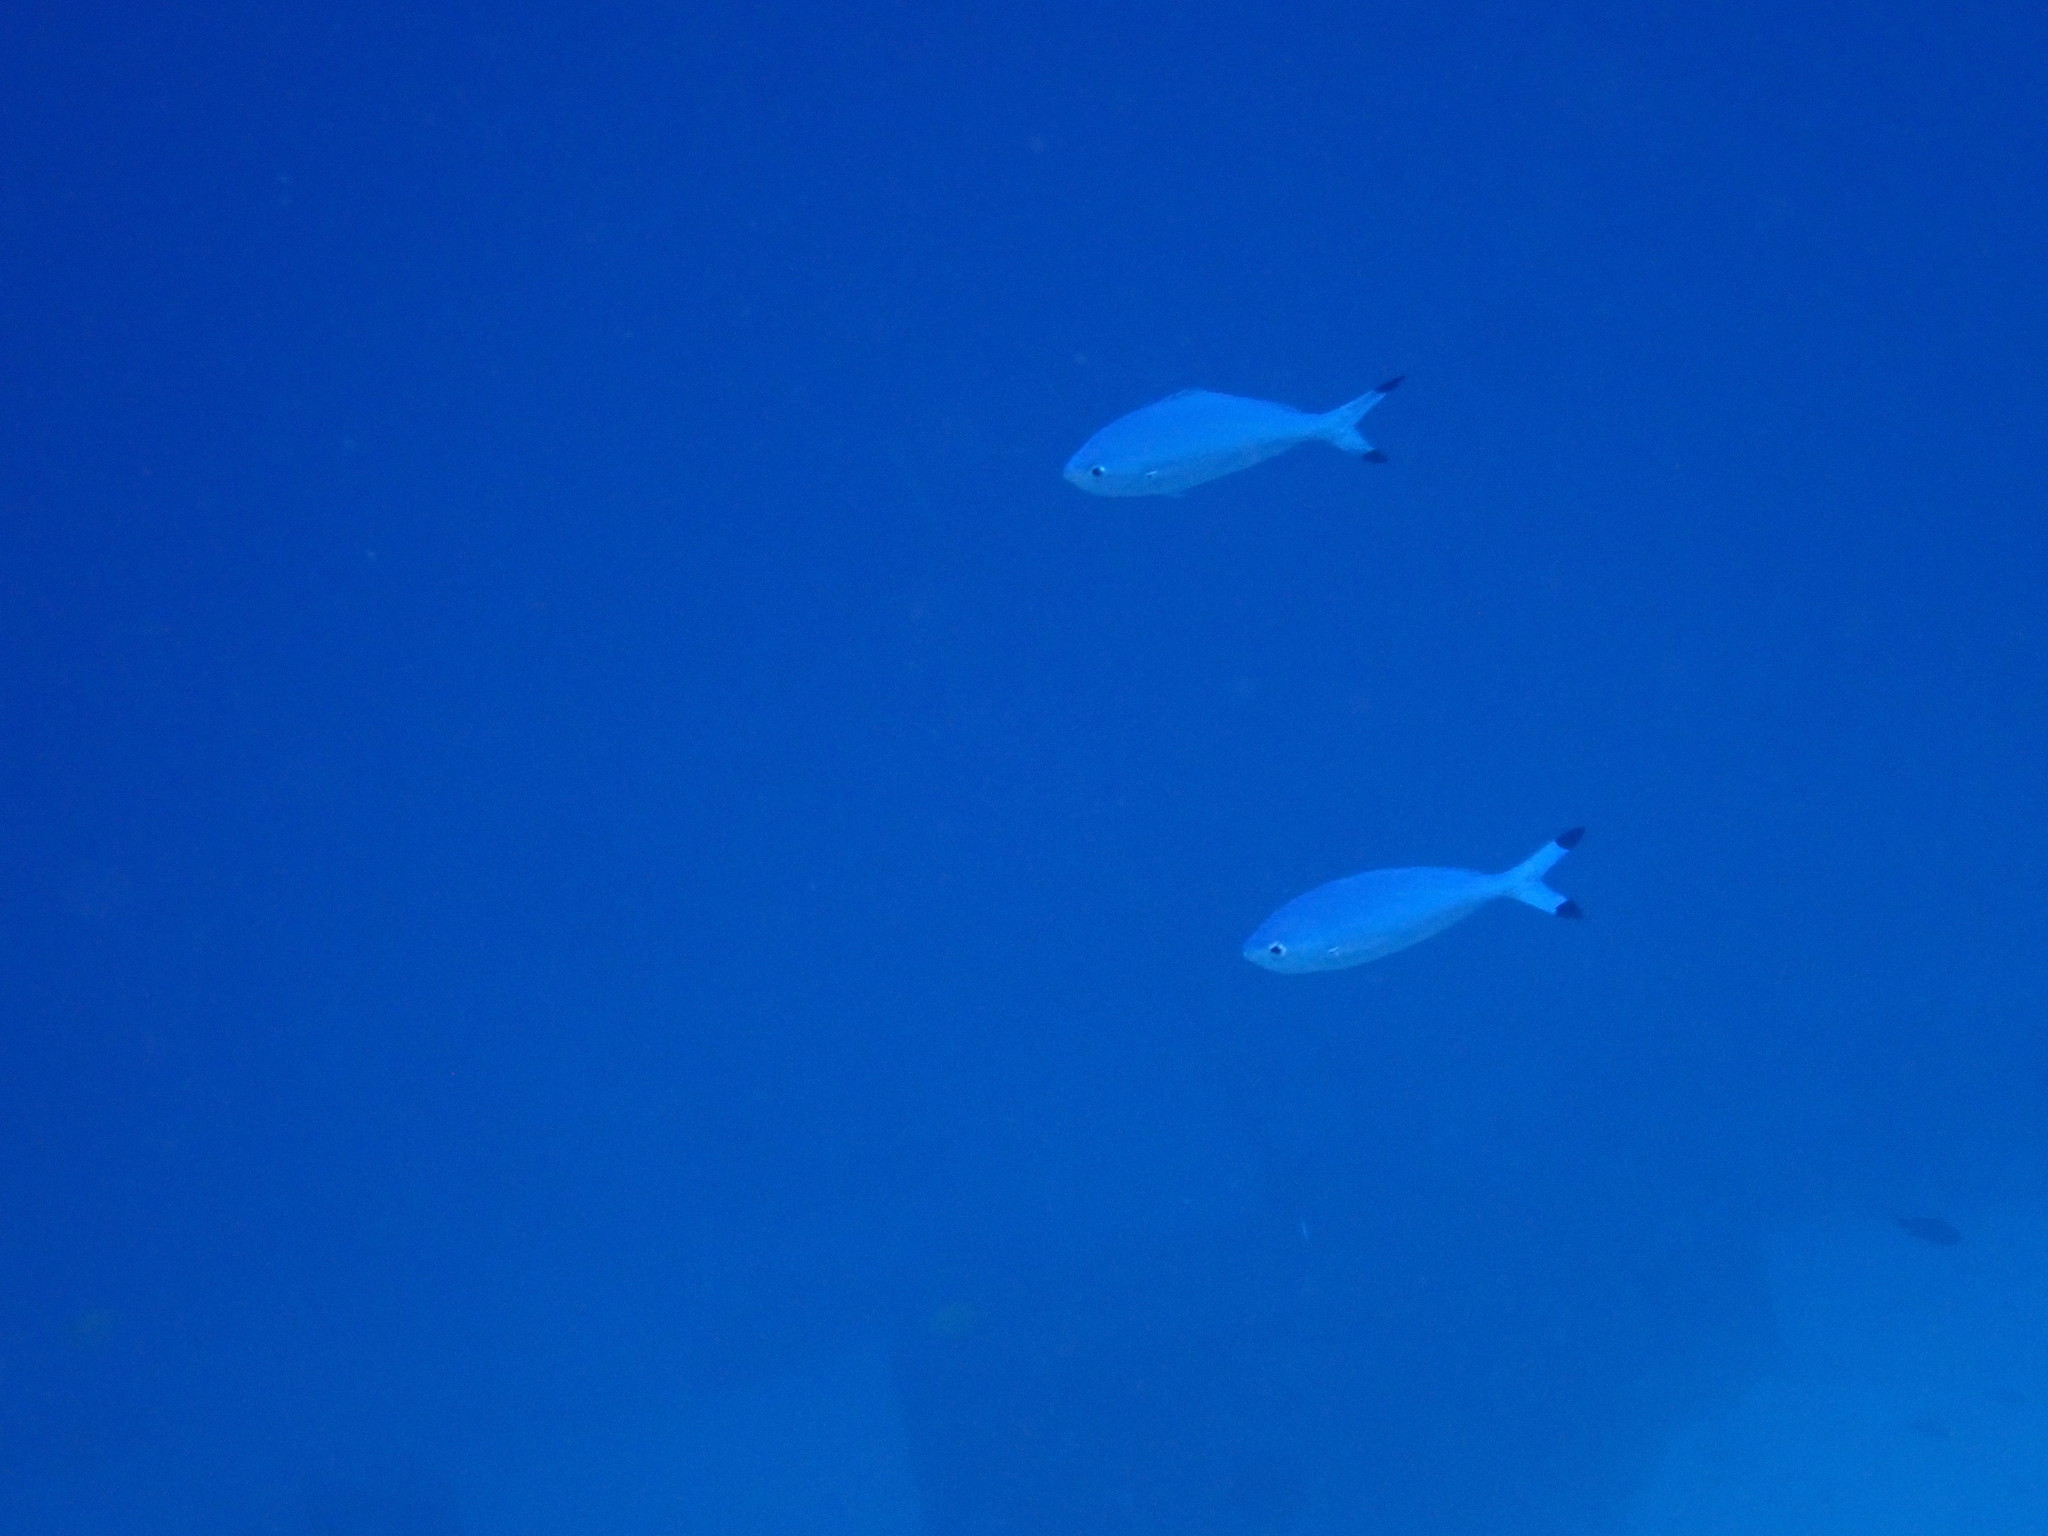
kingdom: Animalia
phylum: Chordata
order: Perciformes
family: Caesionidae
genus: Caesio
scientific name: Caesio lunaris
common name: Blue fusilier
